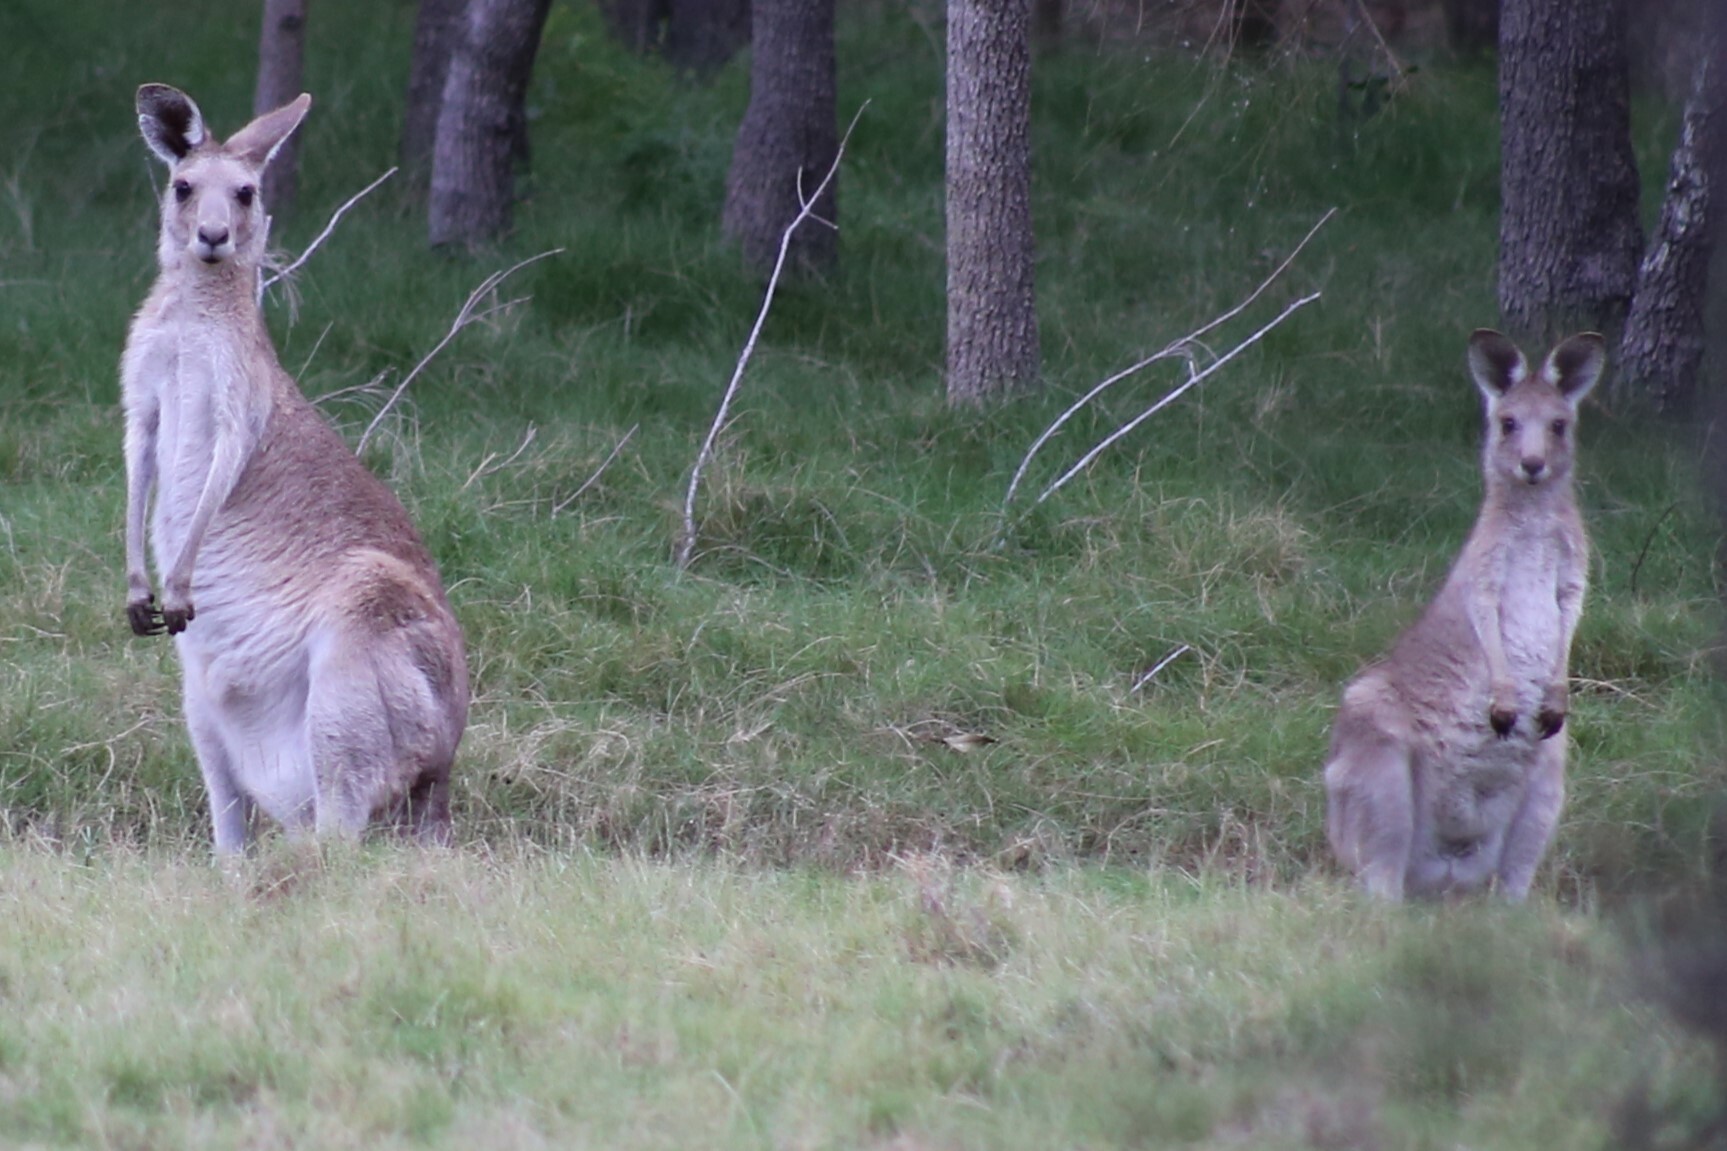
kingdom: Animalia
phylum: Chordata
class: Mammalia
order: Diprotodontia
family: Macropodidae
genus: Macropus
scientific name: Macropus giganteus
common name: Eastern grey kangaroo
